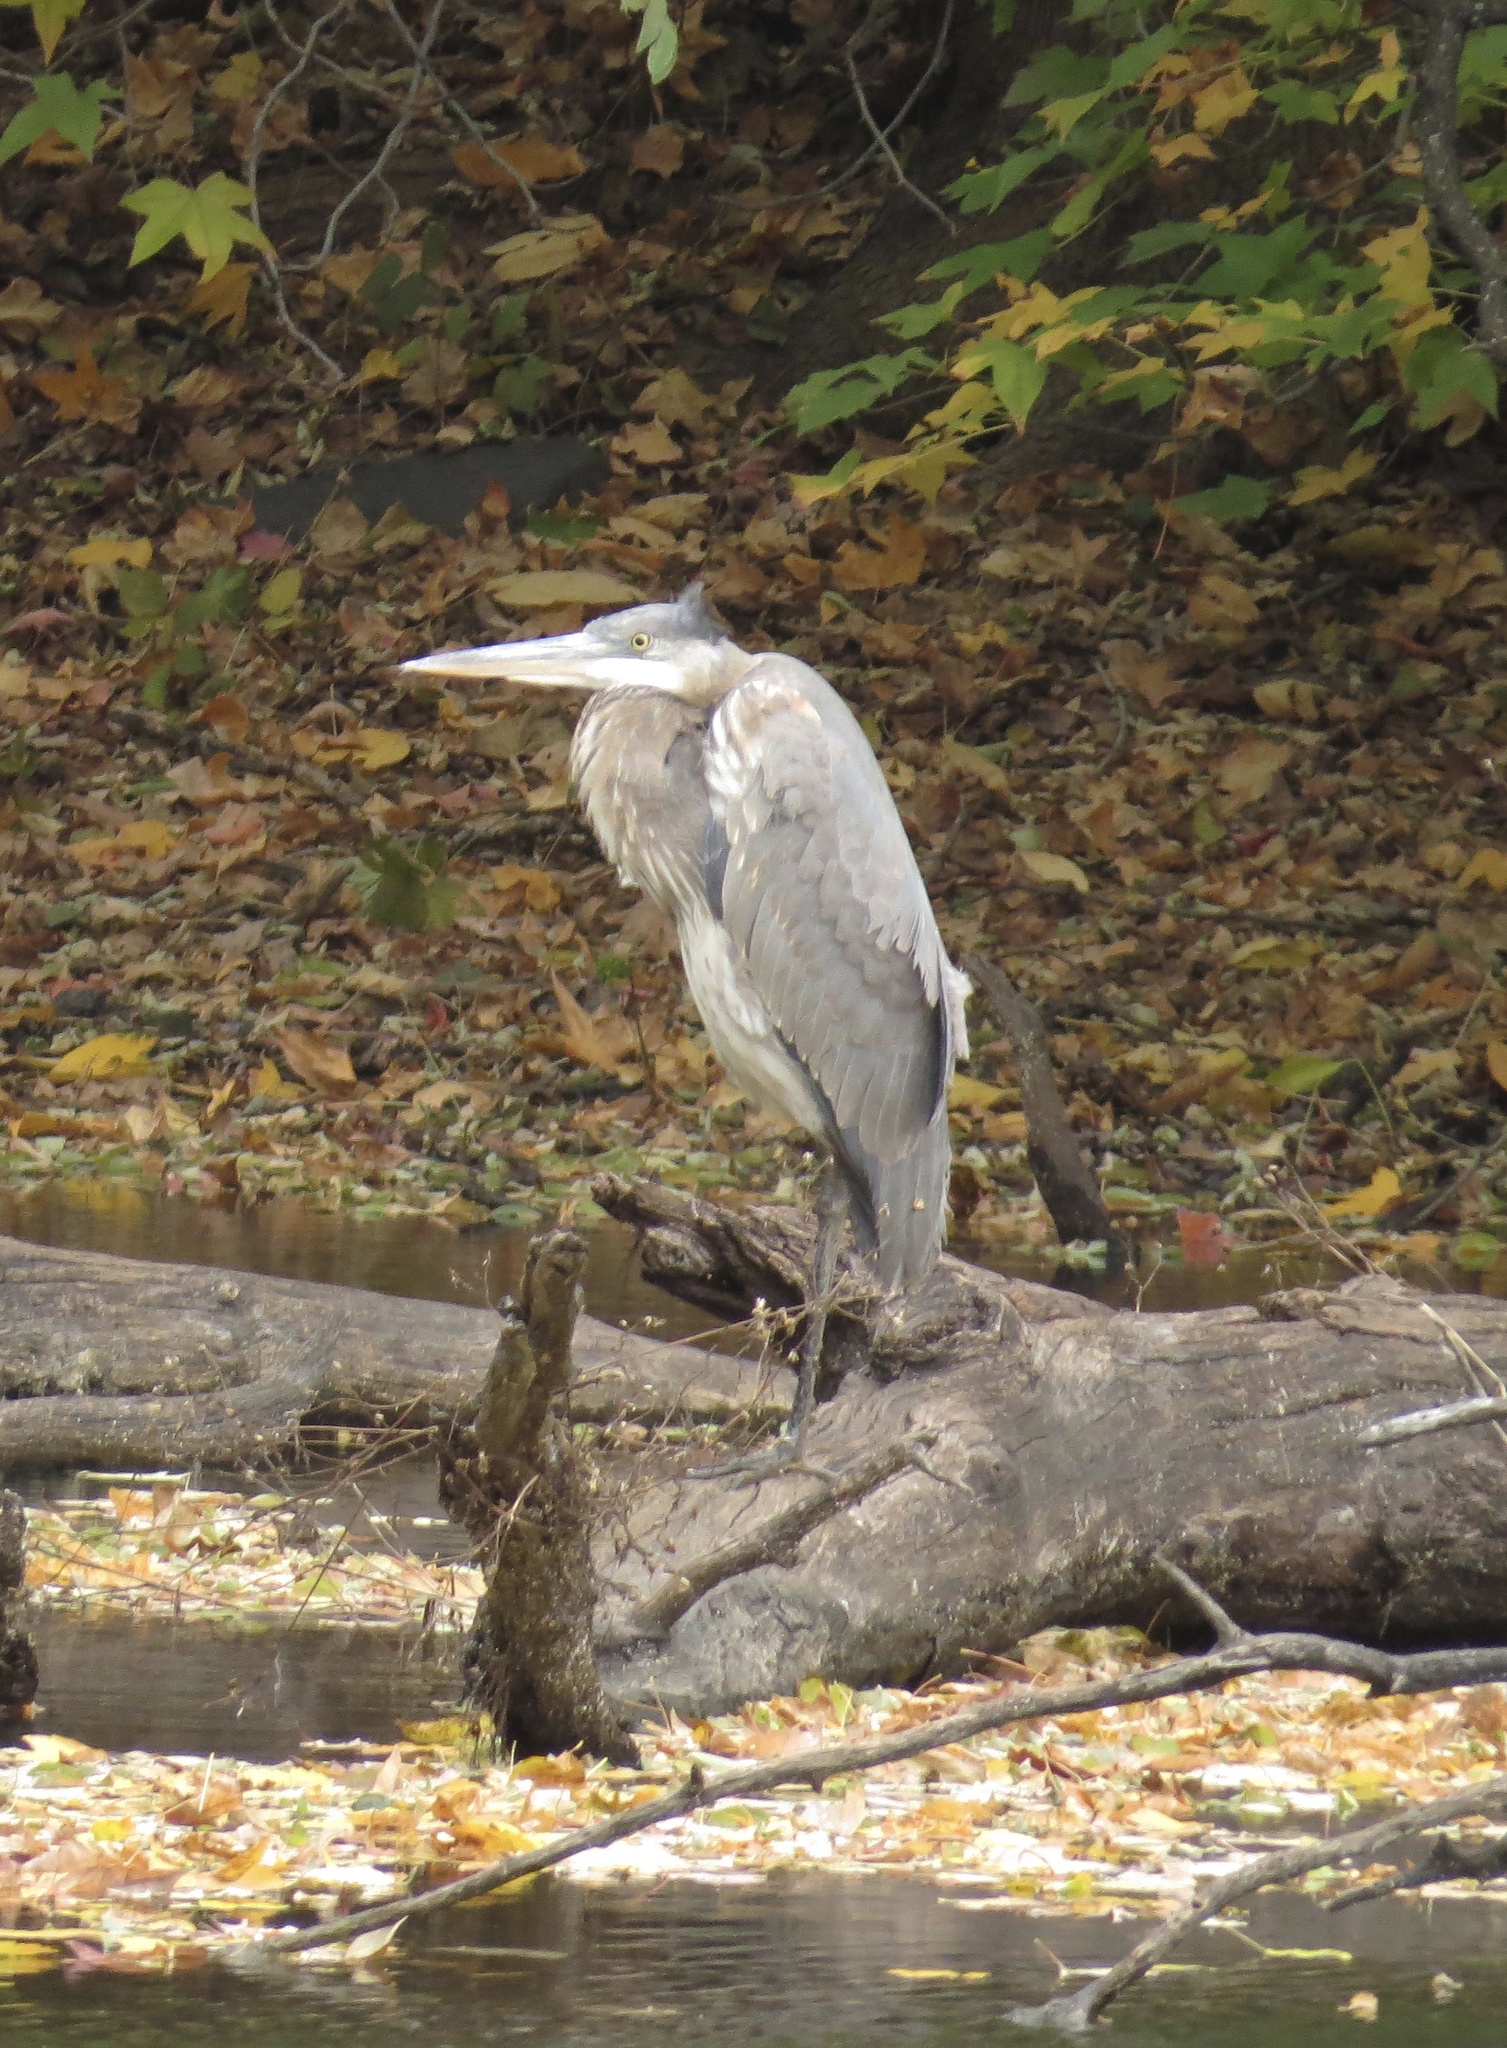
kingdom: Animalia
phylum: Chordata
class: Aves
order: Pelecaniformes
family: Ardeidae
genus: Ardea
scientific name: Ardea herodias
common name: Great blue heron
